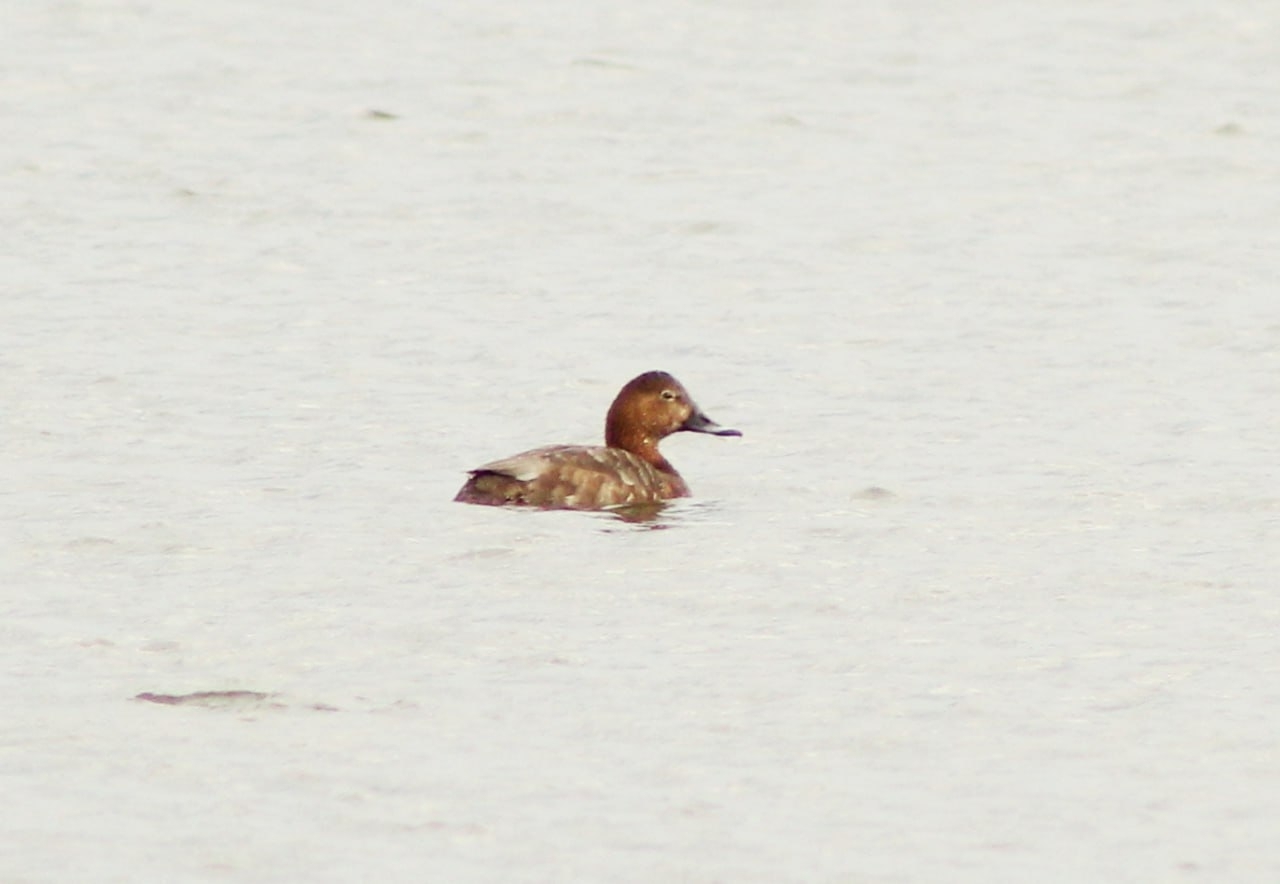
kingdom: Animalia
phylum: Chordata
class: Aves
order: Anseriformes
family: Anatidae
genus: Aythya
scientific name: Aythya ferina
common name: Common pochard
